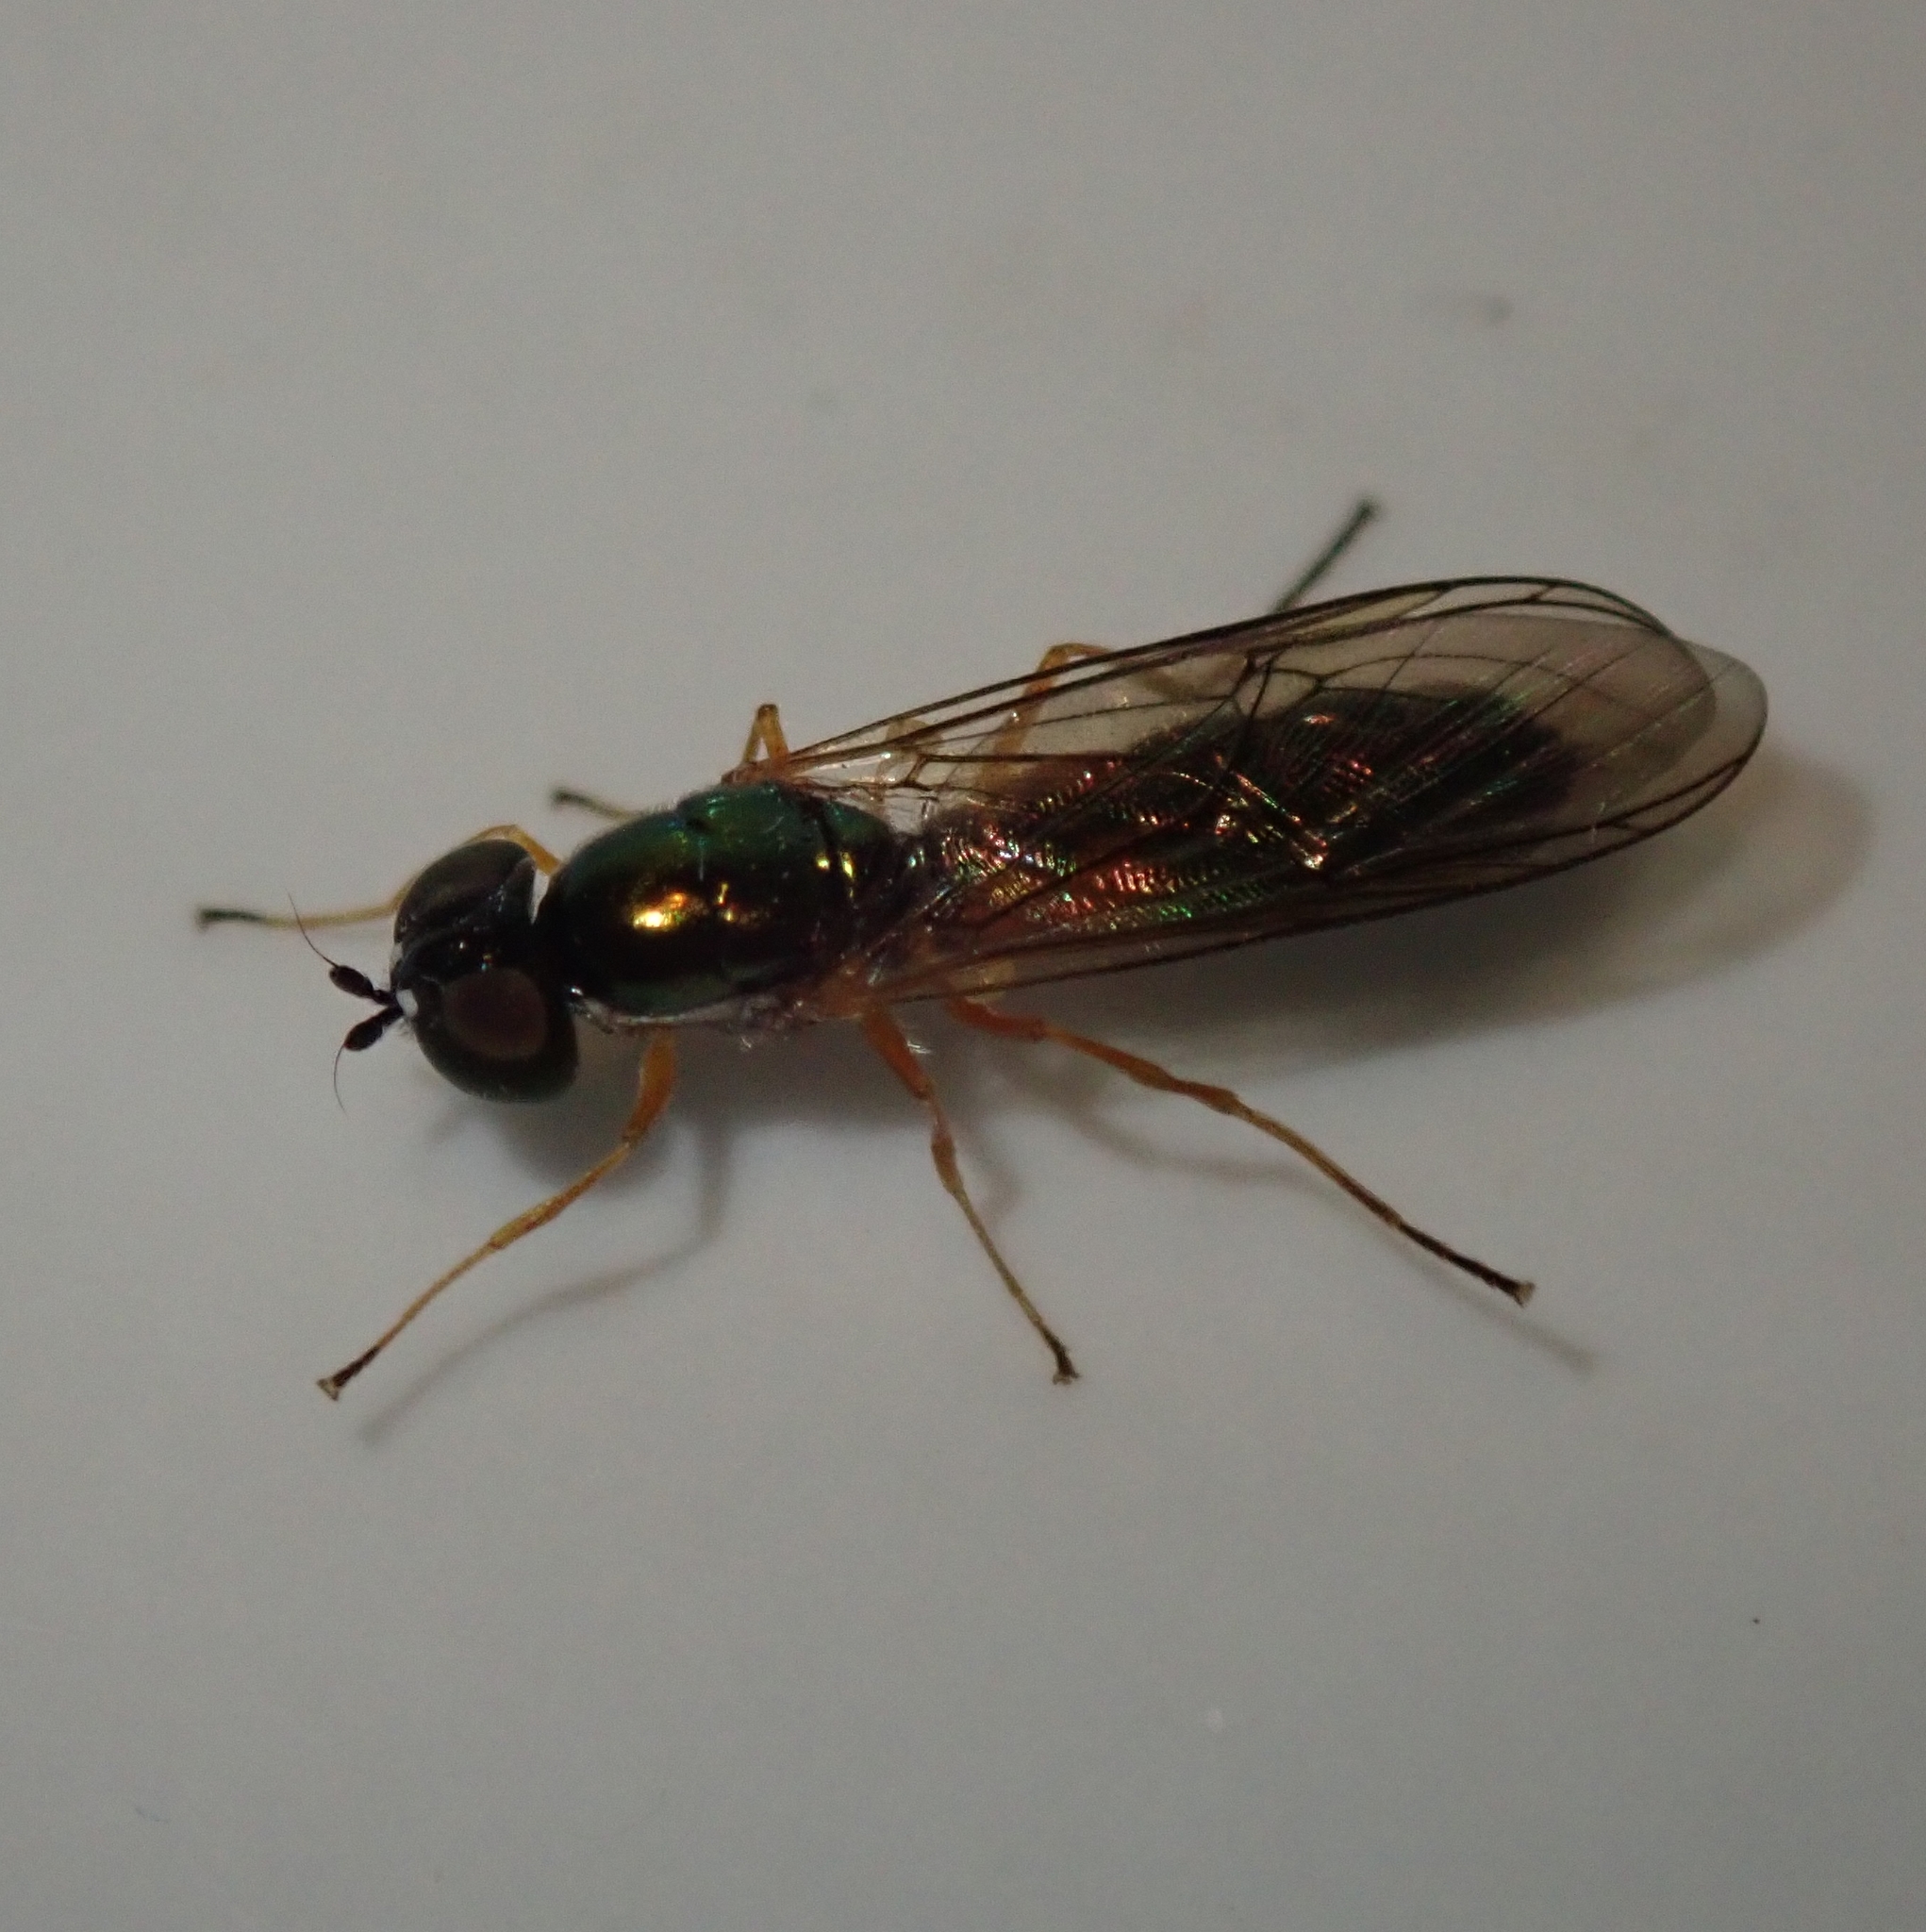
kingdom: Animalia
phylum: Arthropoda
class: Insecta
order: Diptera
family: Stratiomyidae
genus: Sargus
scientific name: Sargus bipunctatus
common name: Twin-spot centurion
